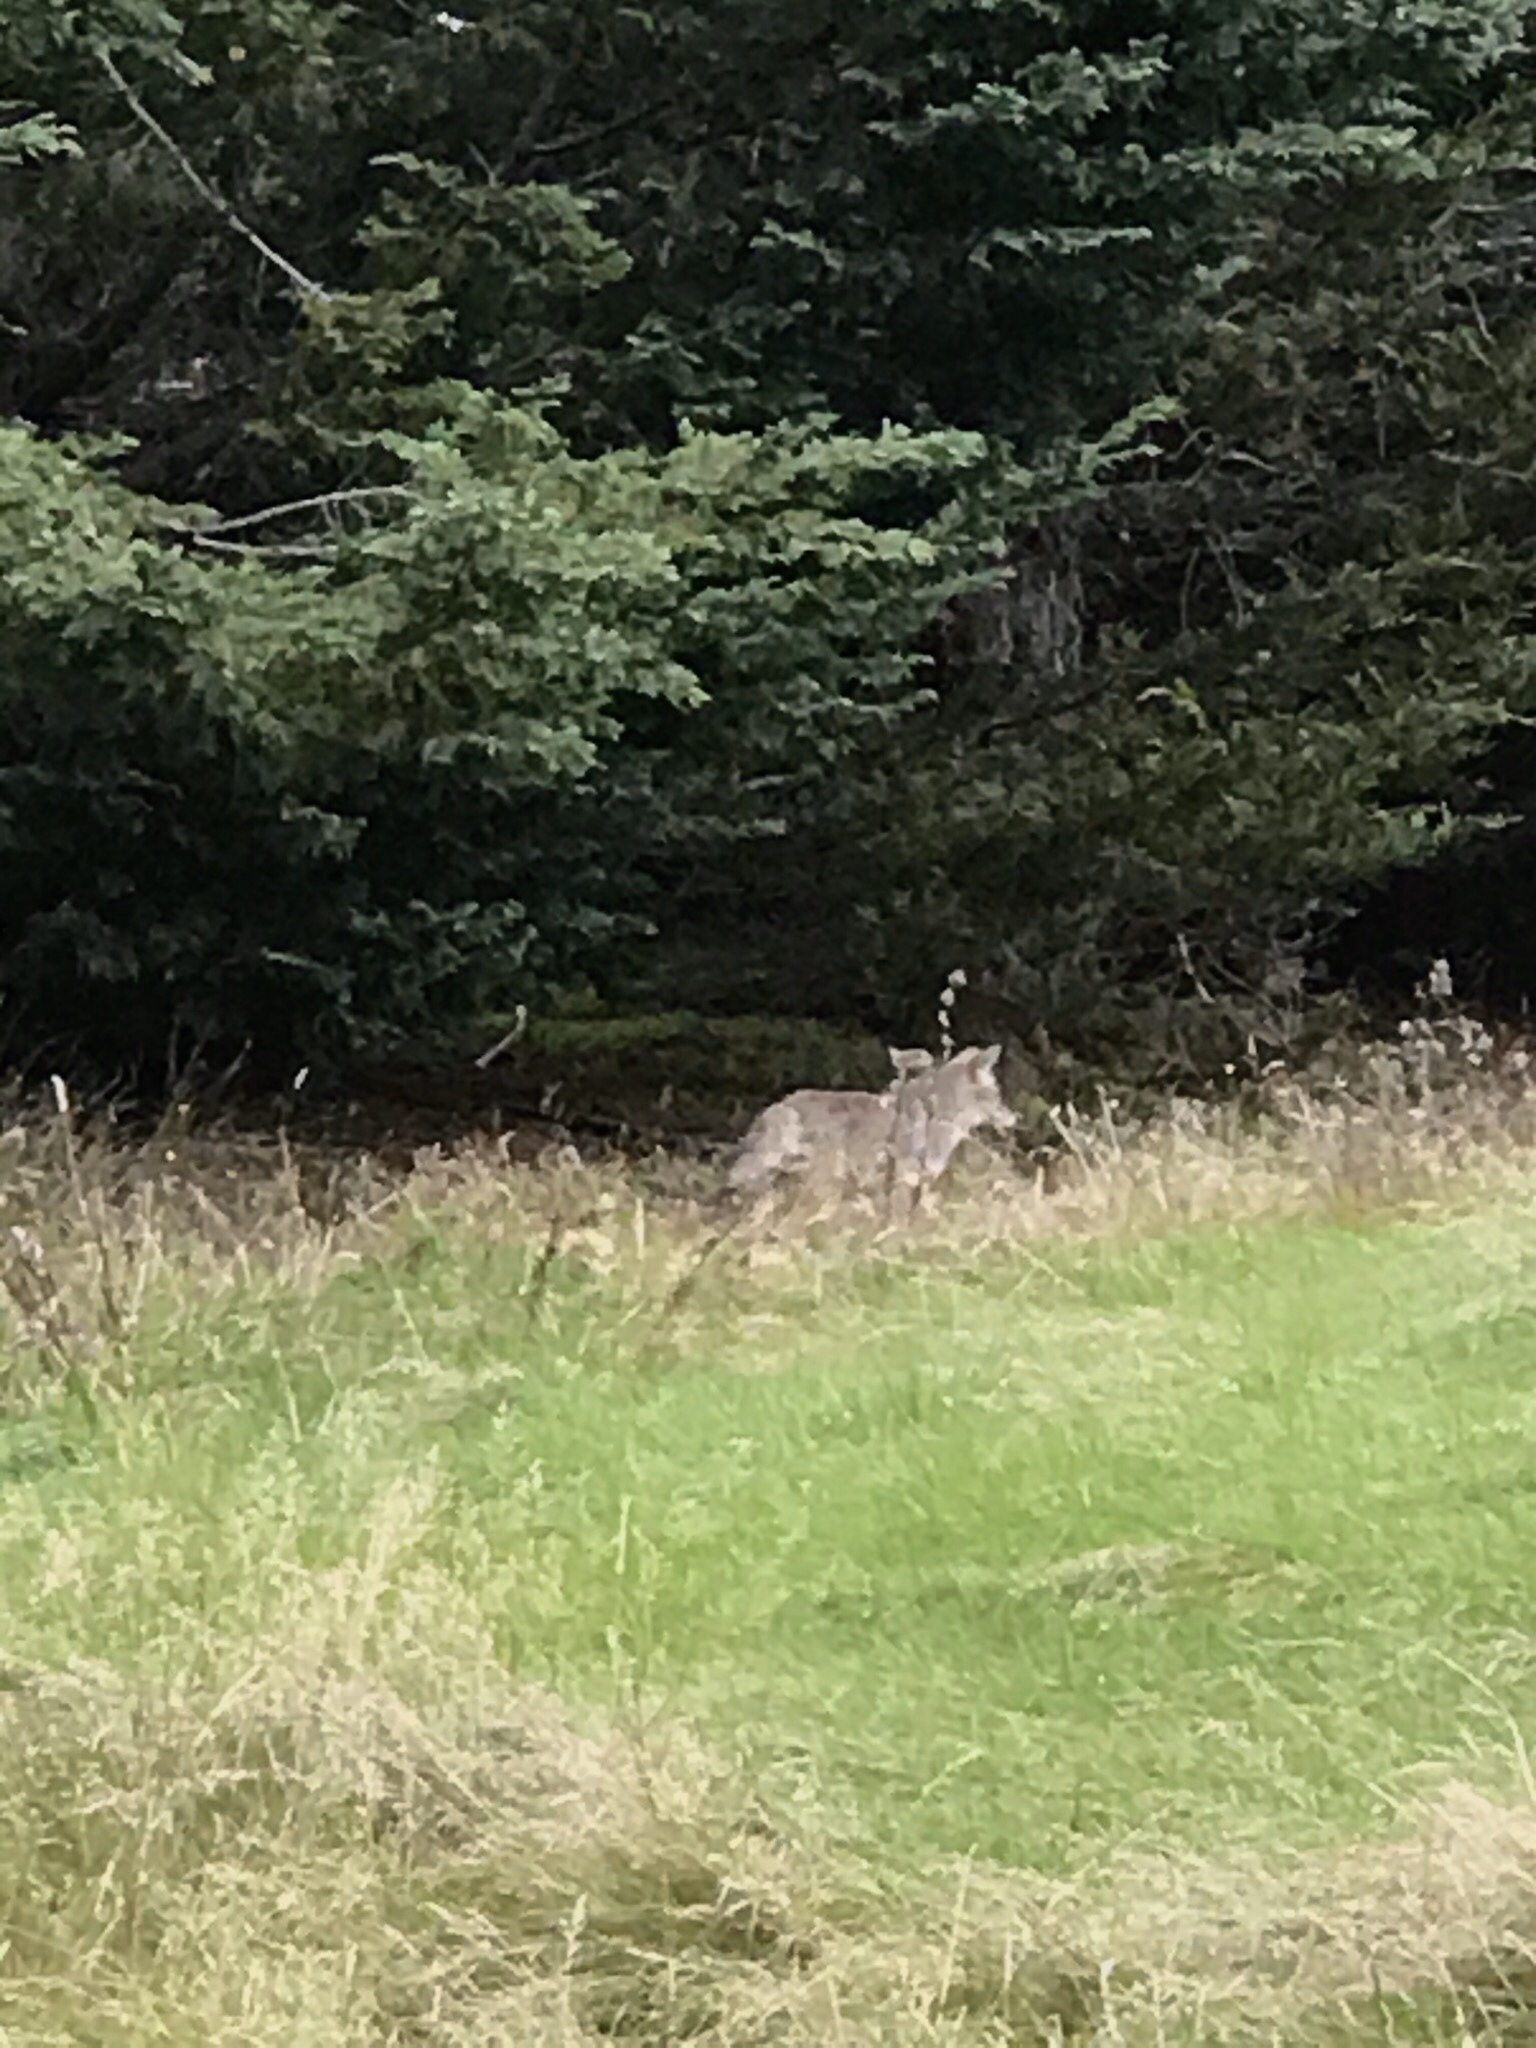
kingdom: Animalia
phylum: Chordata
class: Mammalia
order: Carnivora
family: Canidae
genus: Canis
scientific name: Canis latrans
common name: Coyote
